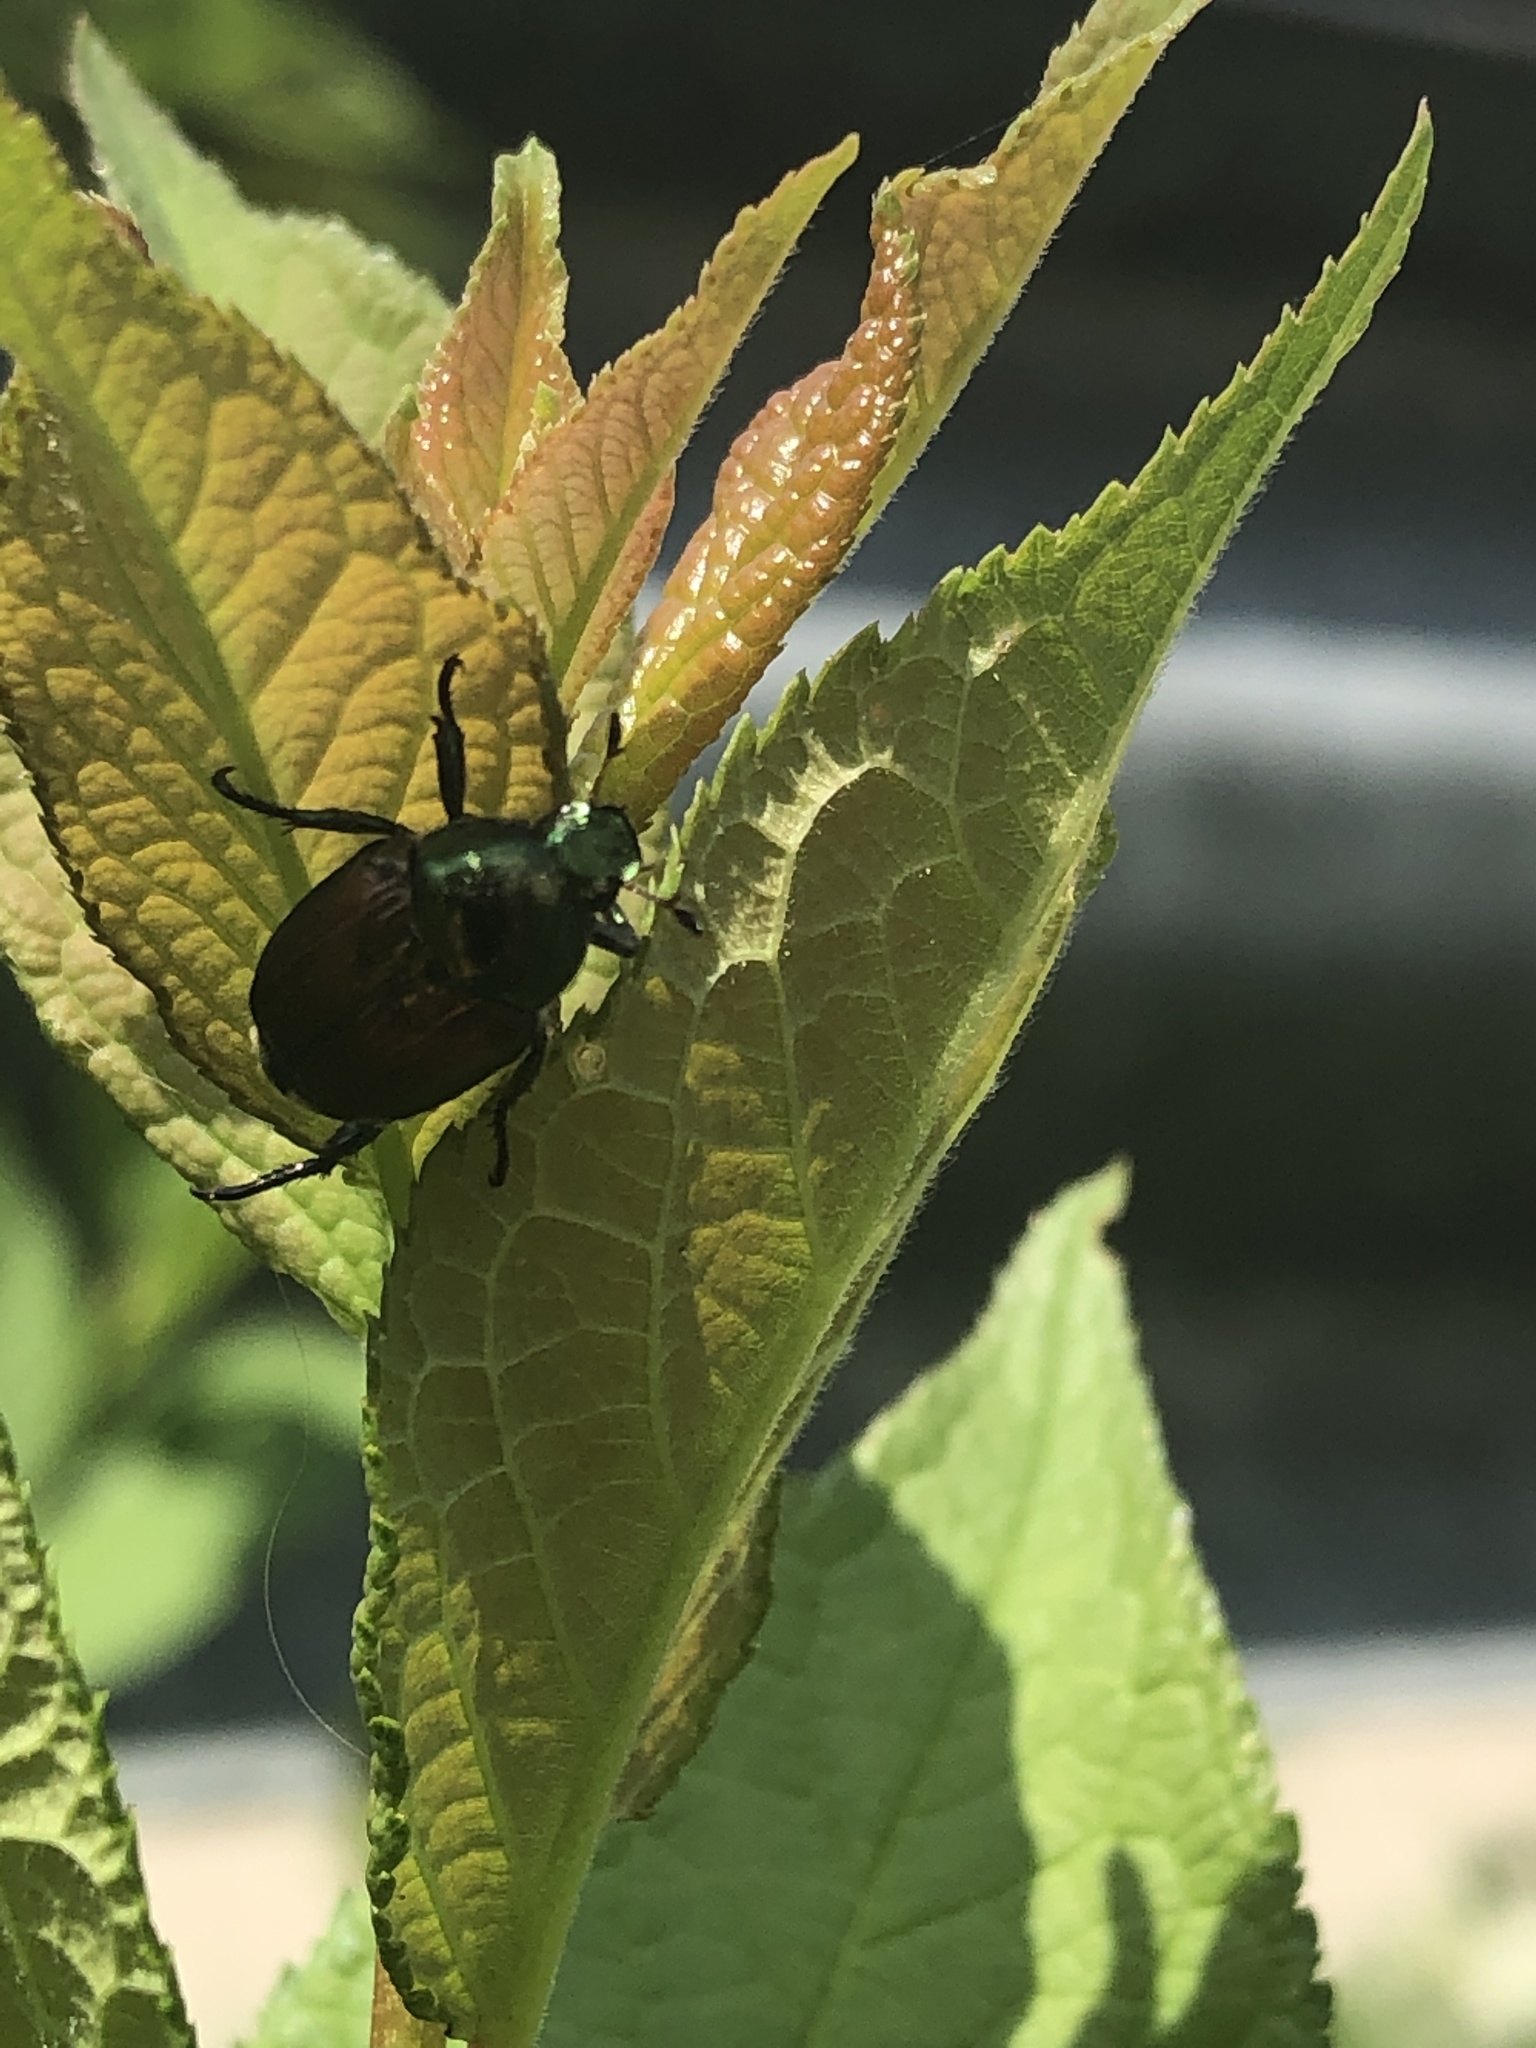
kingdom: Animalia
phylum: Arthropoda
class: Insecta
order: Coleoptera
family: Scarabaeidae
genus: Popillia
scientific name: Popillia japonica
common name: Japanese beetle
